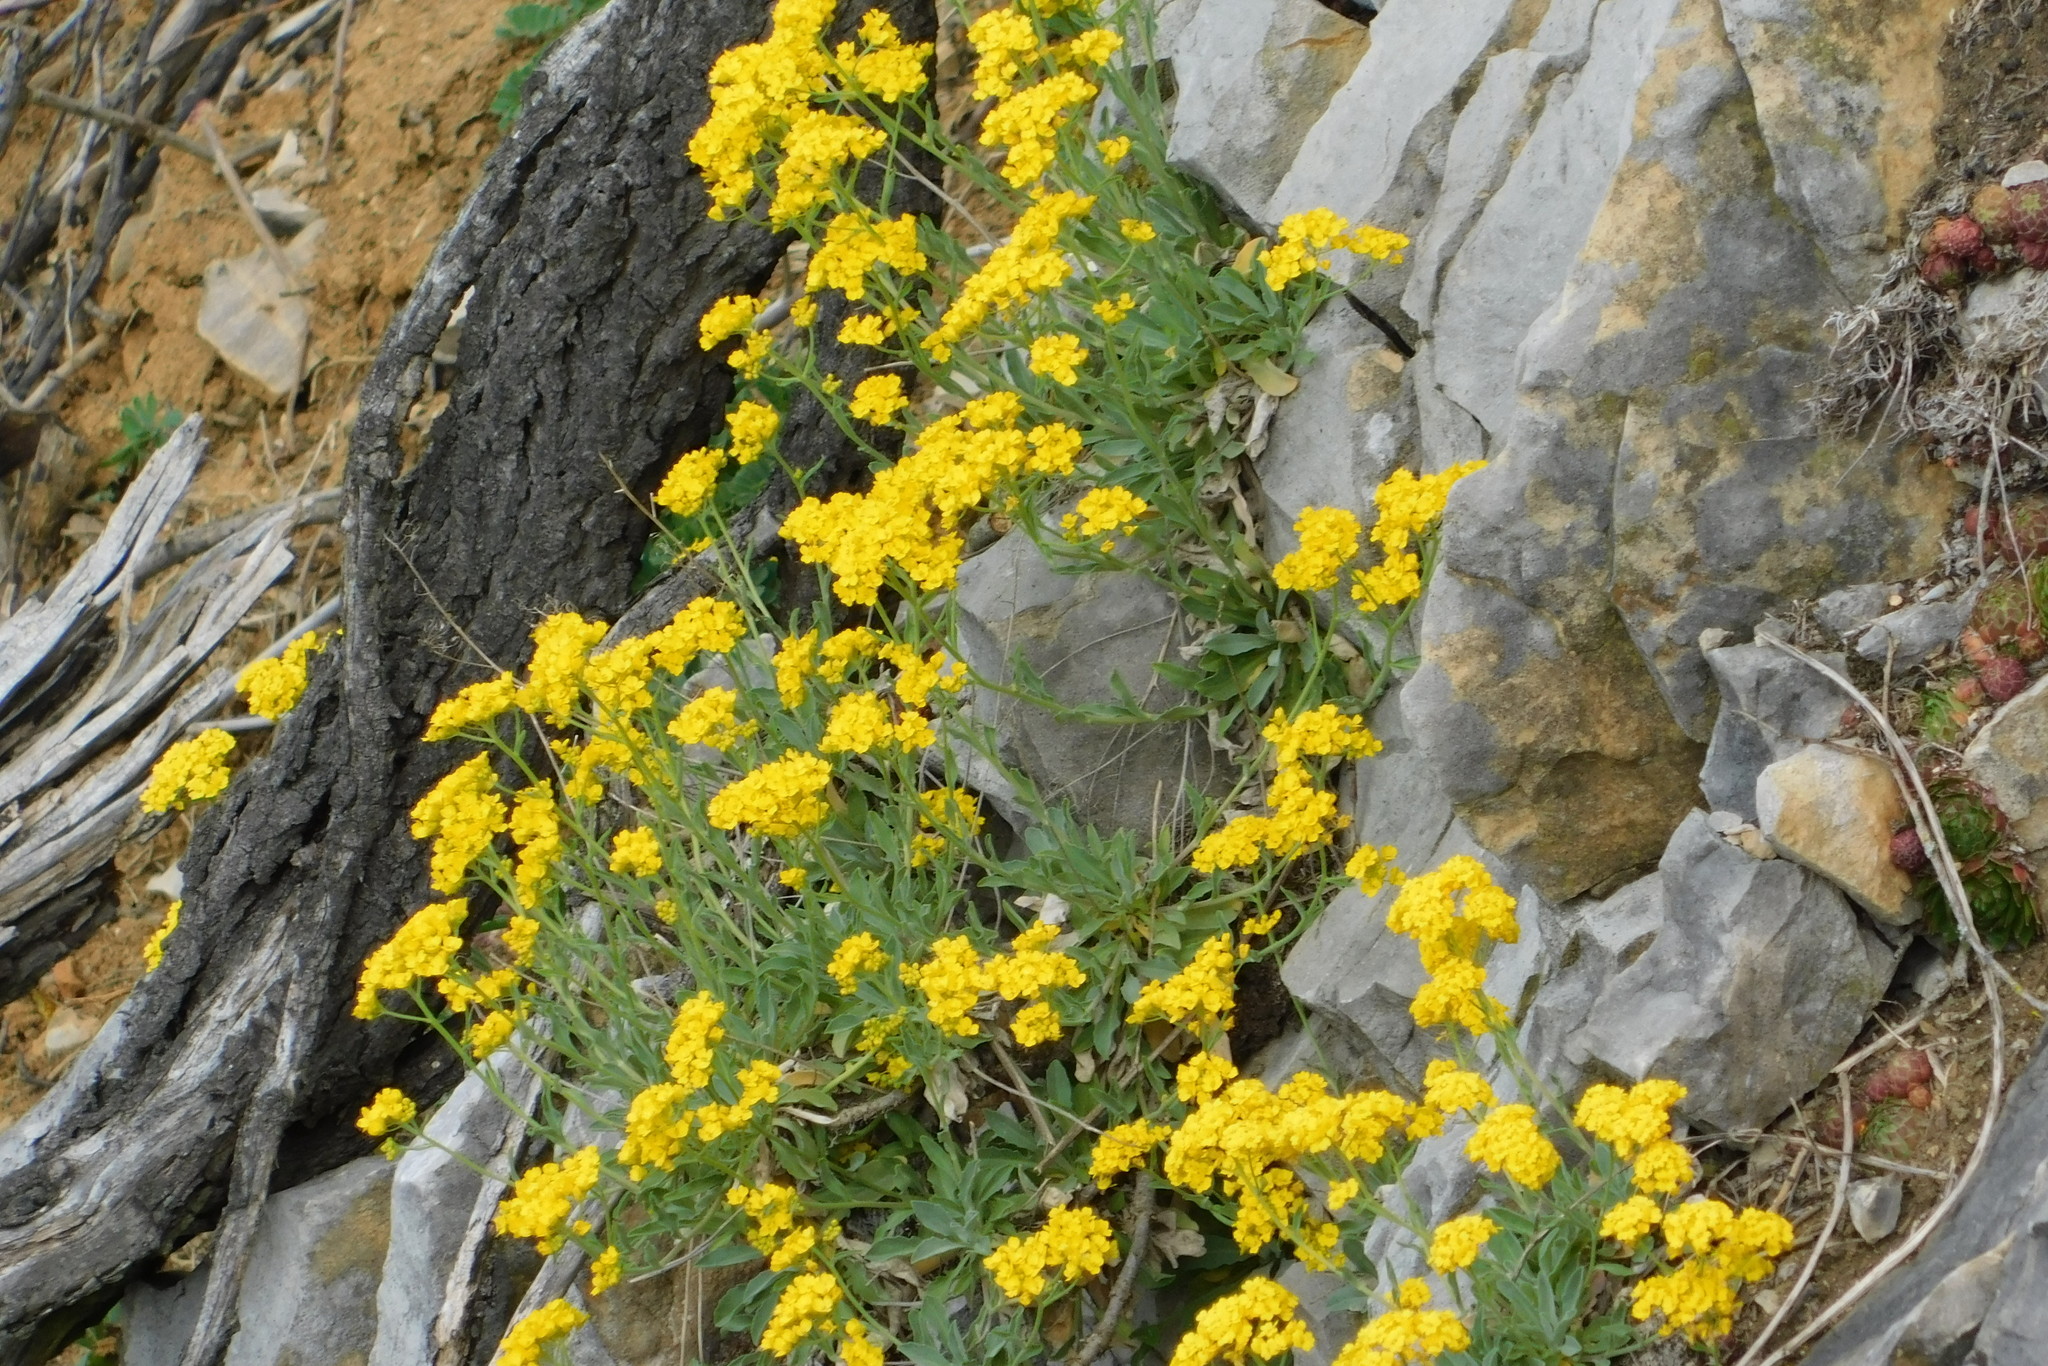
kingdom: Plantae
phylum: Tracheophyta
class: Magnoliopsida
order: Brassicales
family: Brassicaceae
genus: Aurinia
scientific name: Aurinia saxatilis
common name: Golden-tuft alyssum
